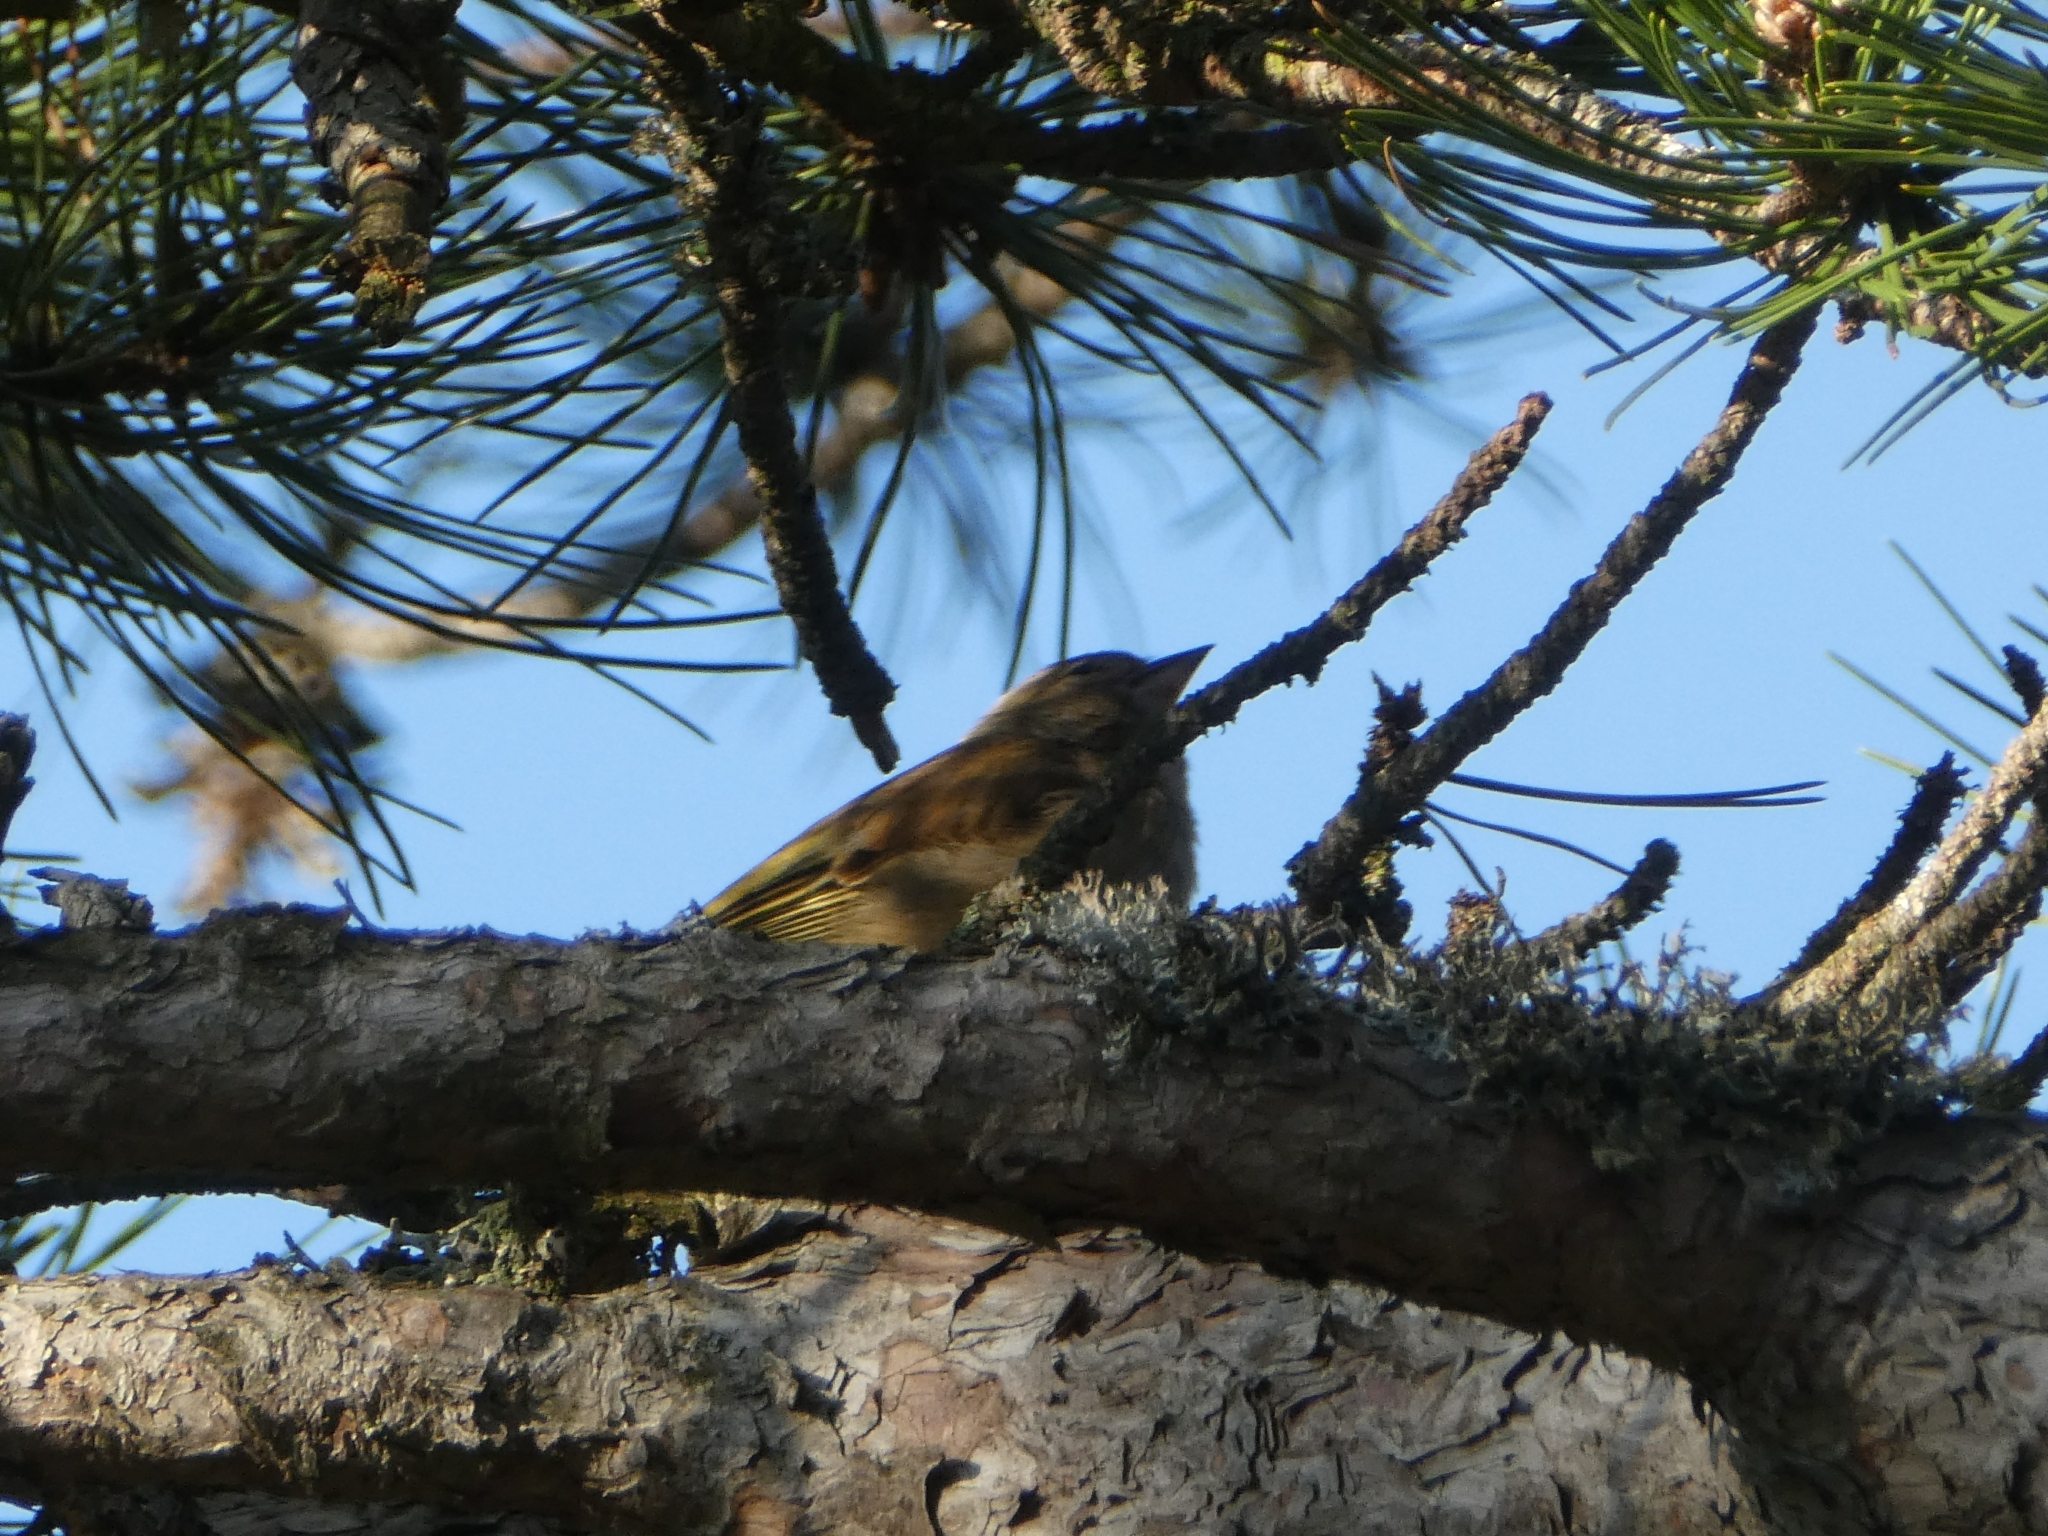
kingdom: Animalia
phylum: Chordata
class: Aves
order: Passeriformes
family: Fringillidae
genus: Fringilla
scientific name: Fringilla coelebs
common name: Common chaffinch
